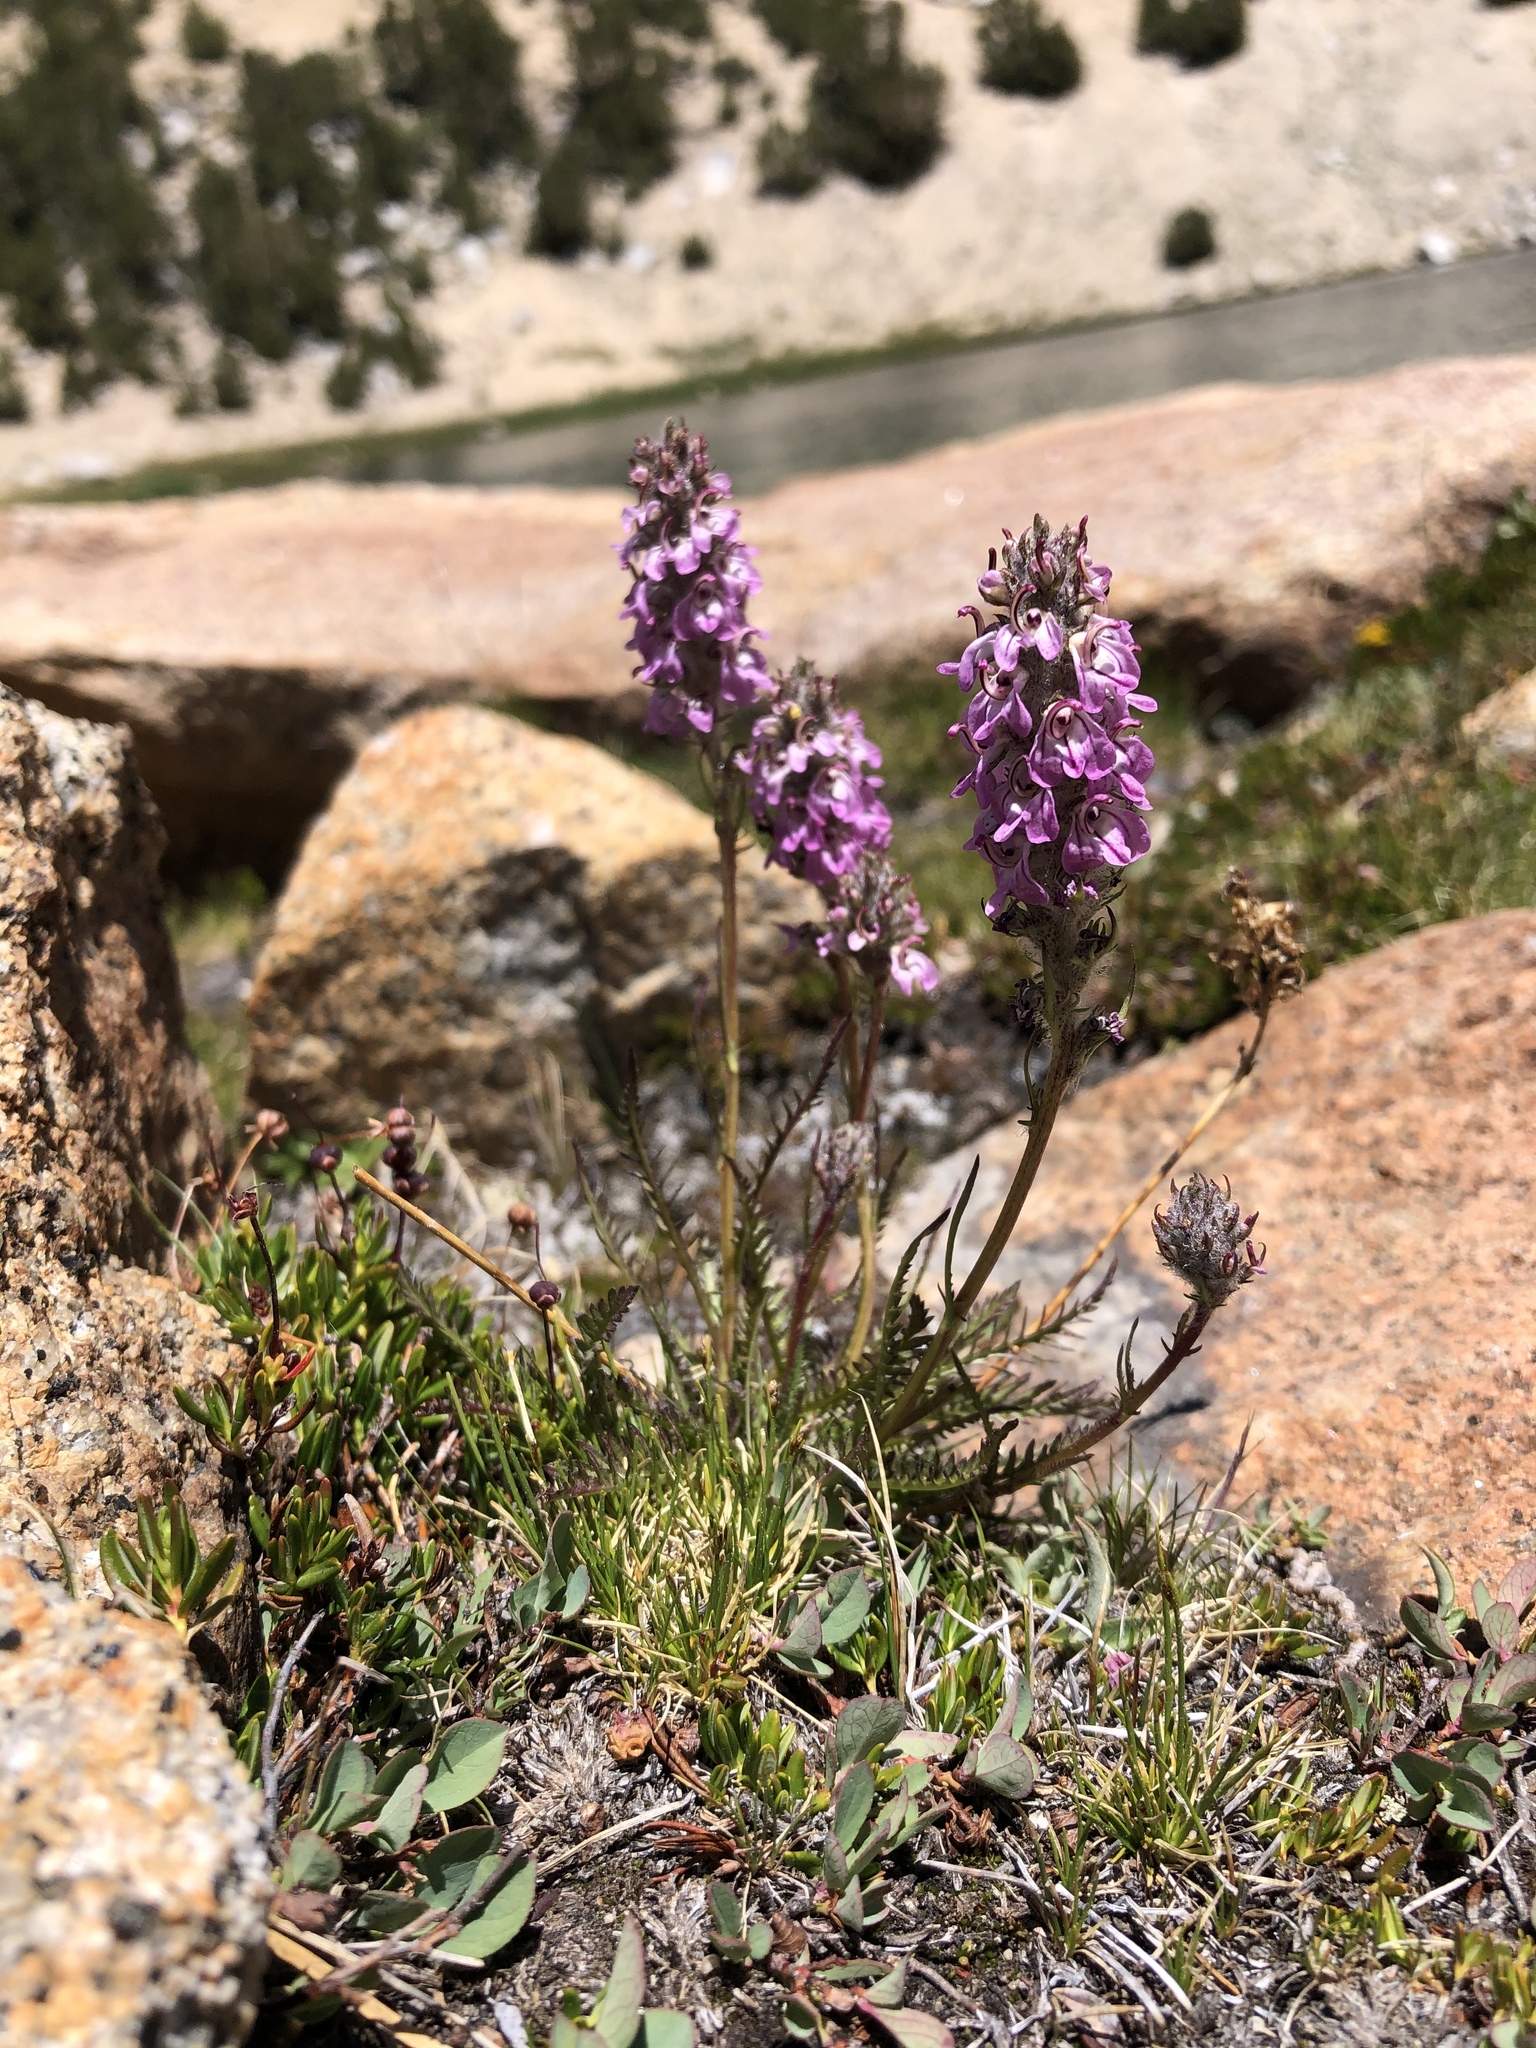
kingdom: Plantae
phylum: Tracheophyta
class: Magnoliopsida
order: Lamiales
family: Orobanchaceae
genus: Pedicularis
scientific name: Pedicularis attollens
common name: Slender pedicularis
